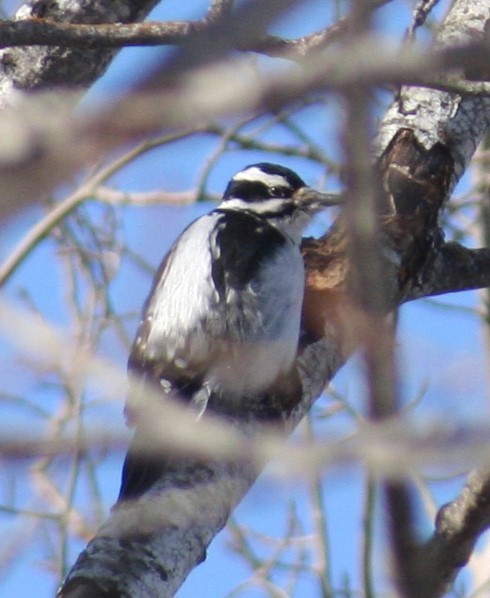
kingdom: Animalia
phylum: Chordata
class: Aves
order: Piciformes
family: Picidae
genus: Leuconotopicus
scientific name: Leuconotopicus villosus
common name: Hairy woodpecker
